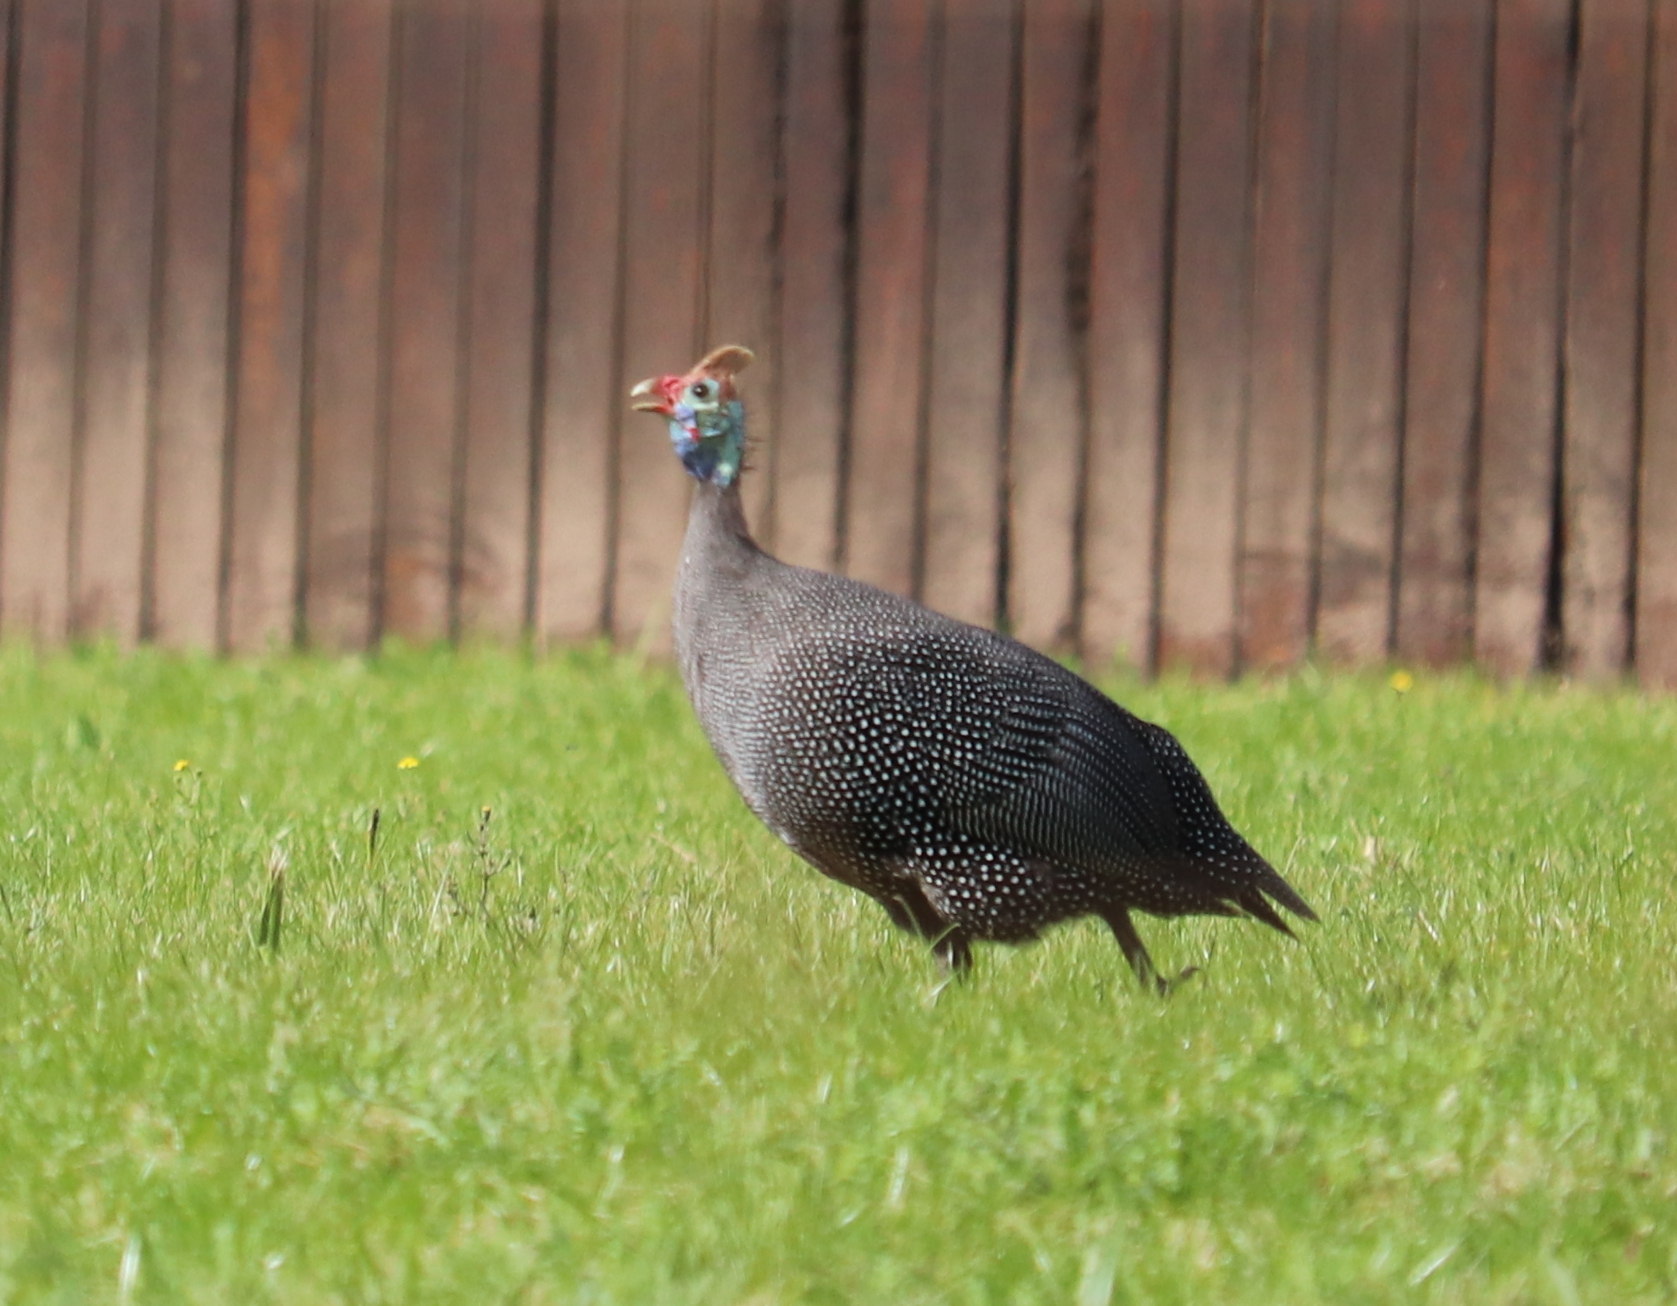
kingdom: Animalia
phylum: Chordata
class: Aves
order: Galliformes
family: Numididae
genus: Numida
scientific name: Numida meleagris
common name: Helmeted guineafowl
